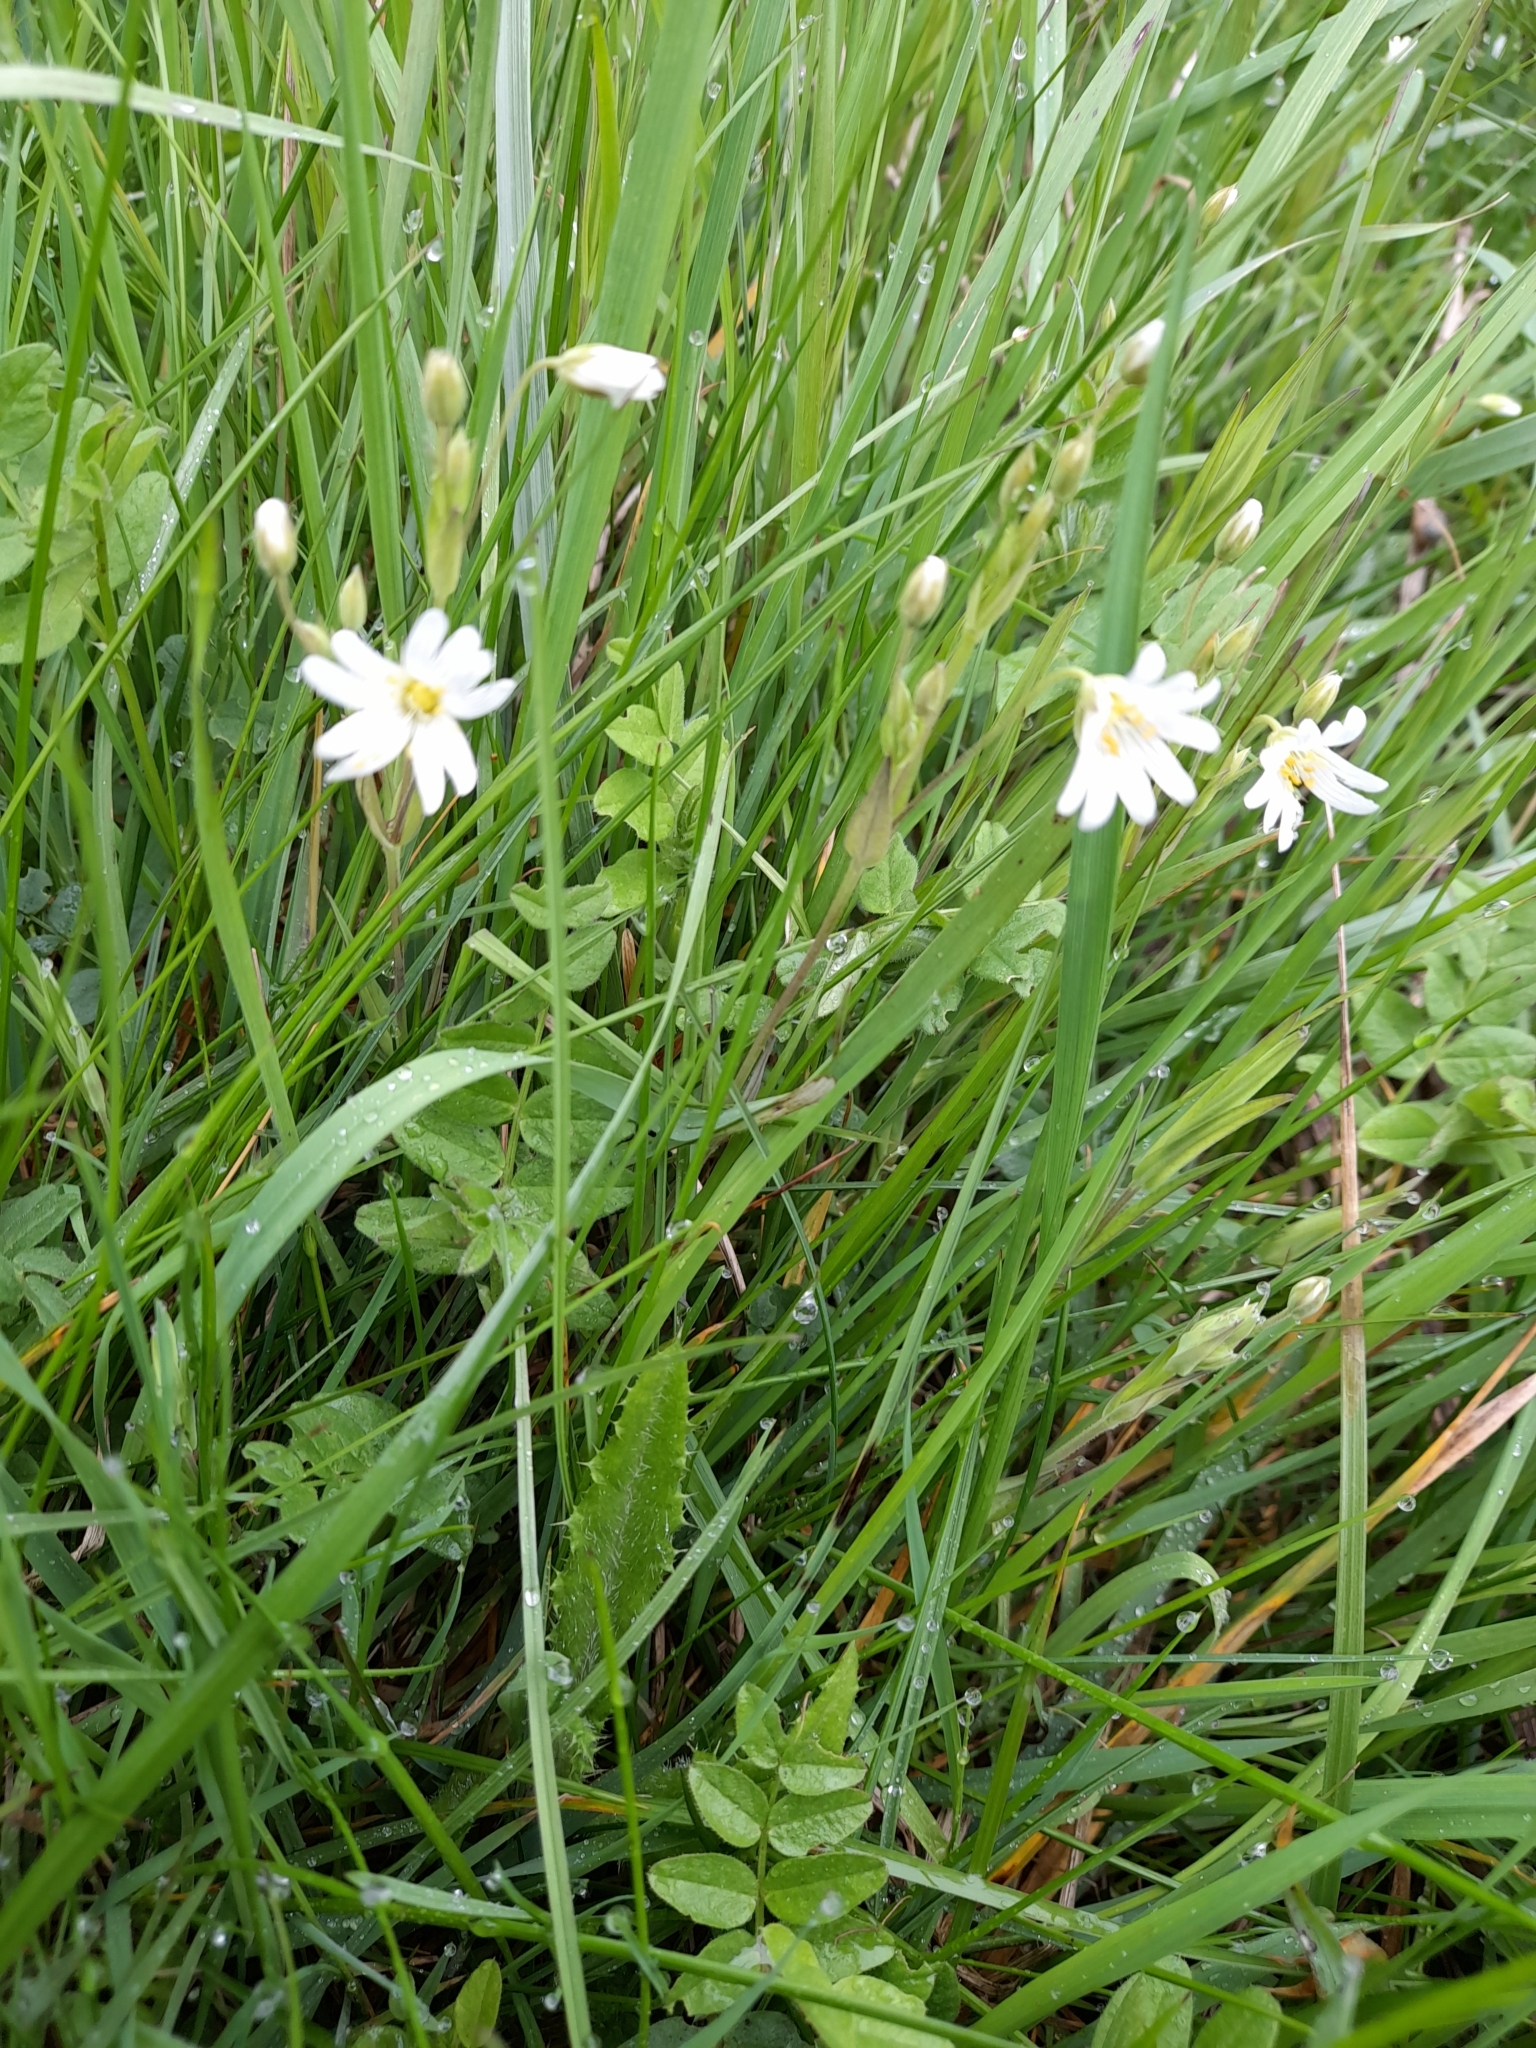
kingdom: Plantae
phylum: Tracheophyta
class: Magnoliopsida
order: Caryophyllales
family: Caryophyllaceae
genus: Rabelera
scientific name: Rabelera holostea
